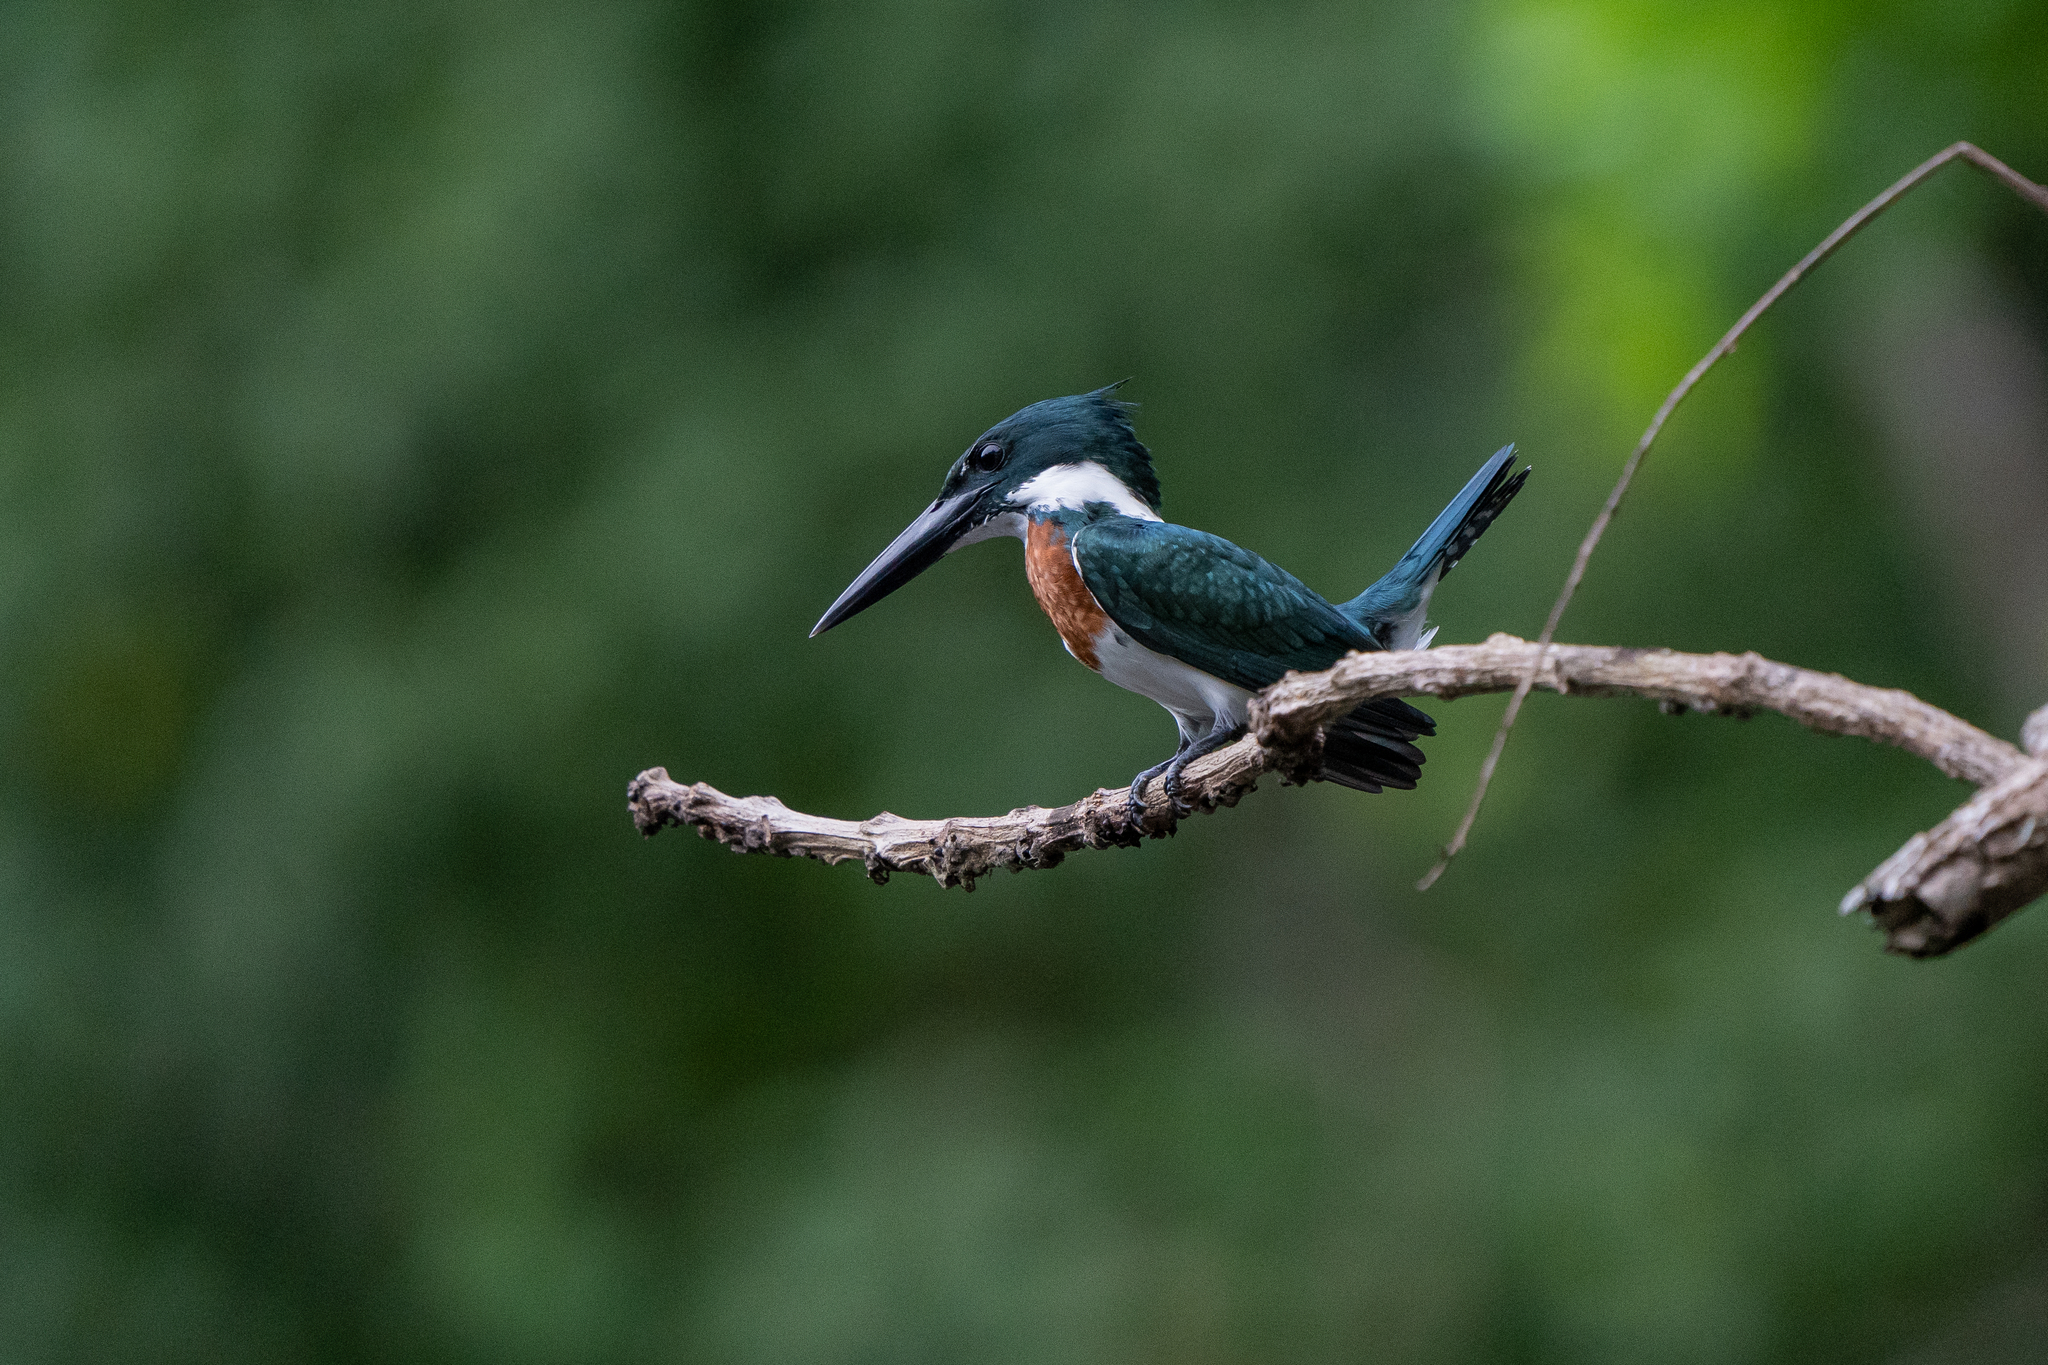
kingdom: Animalia
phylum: Chordata
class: Aves
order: Coraciiformes
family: Alcedinidae
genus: Chloroceryle
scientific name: Chloroceryle amazona
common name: Amazon kingfisher
